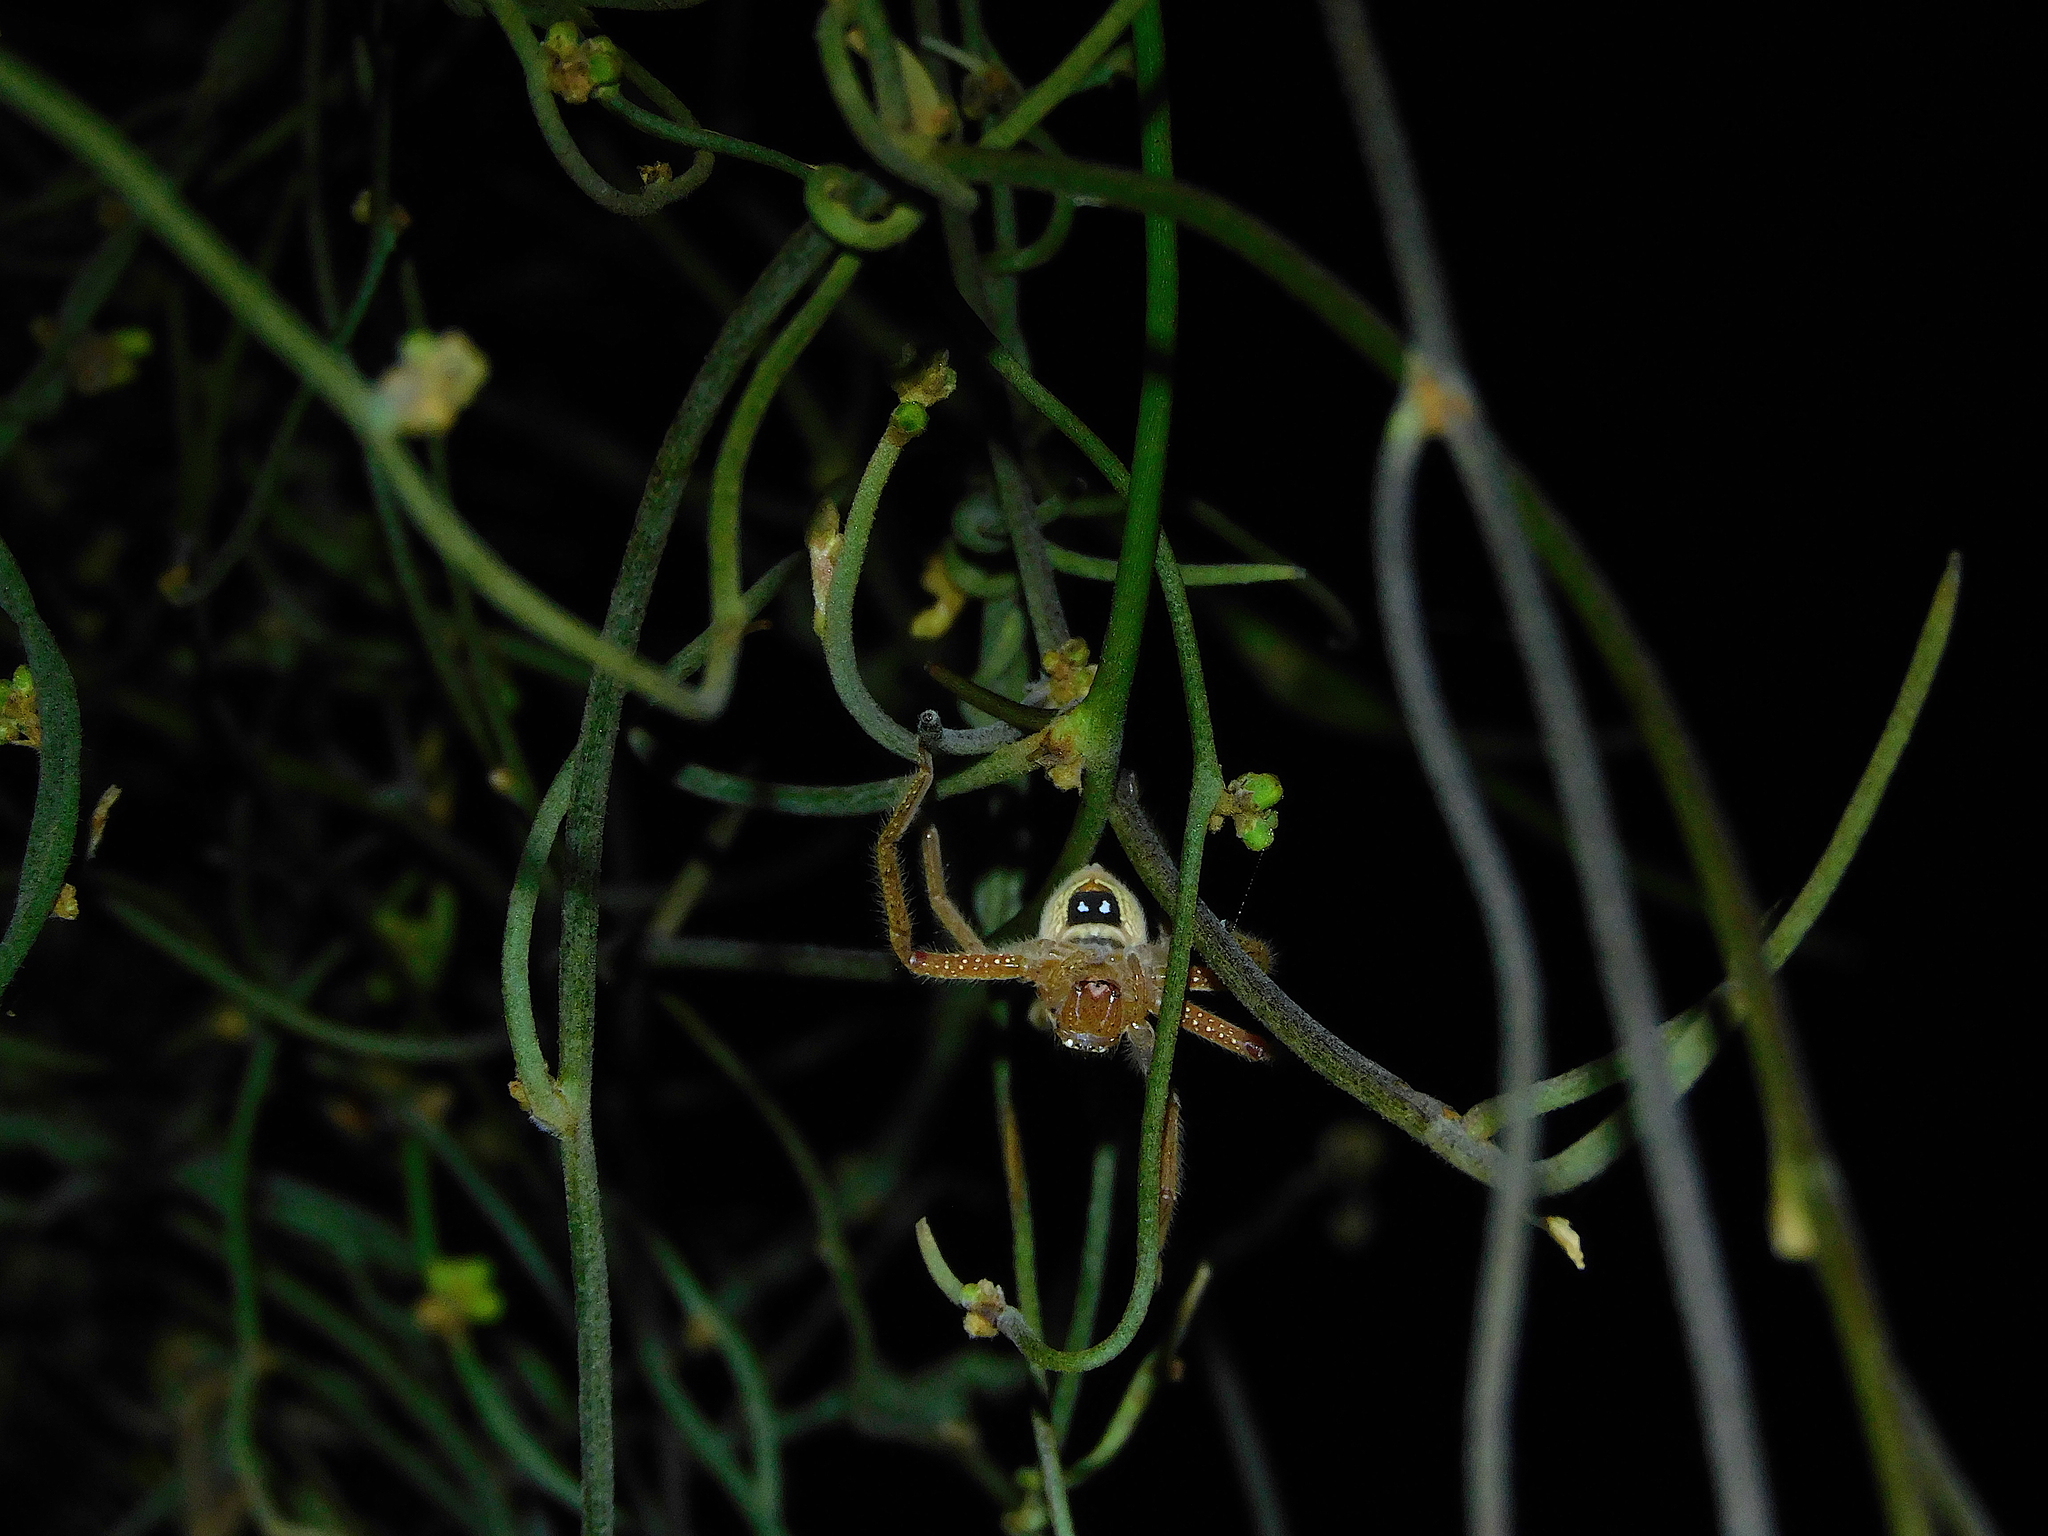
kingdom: Animalia
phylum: Arthropoda
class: Arachnida
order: Araneae
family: Sparassidae
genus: Neosparassus
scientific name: Neosparassus diana
